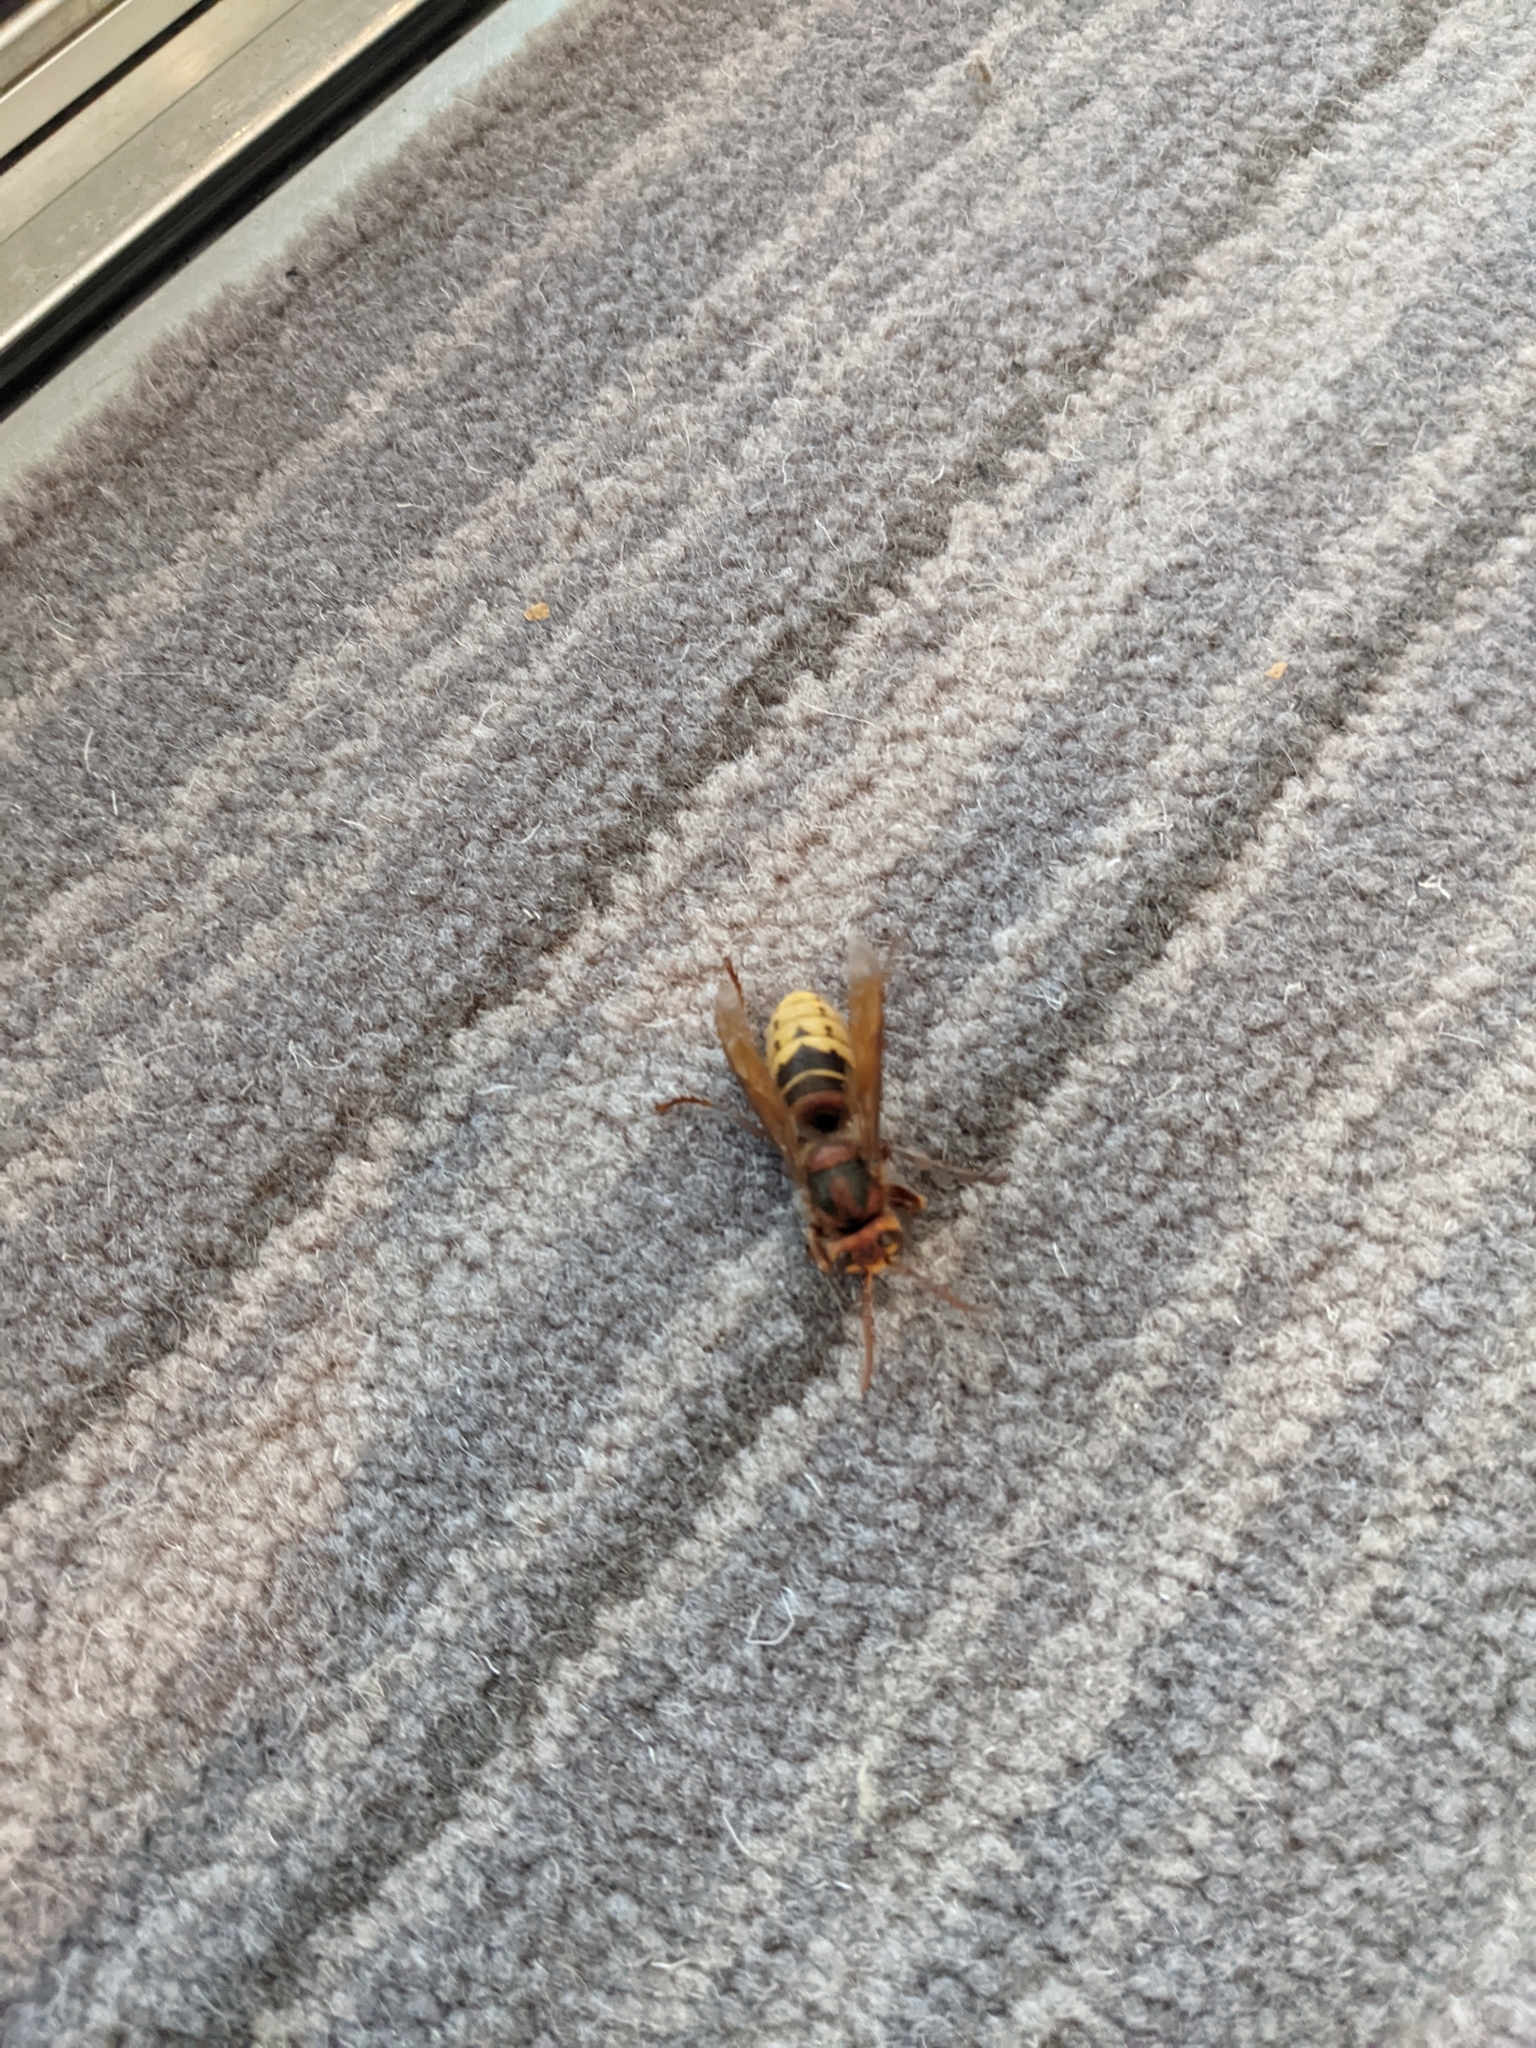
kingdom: Animalia
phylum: Arthropoda
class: Insecta
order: Hymenoptera
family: Vespidae
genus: Vespa
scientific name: Vespa crabro
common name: Hornet
